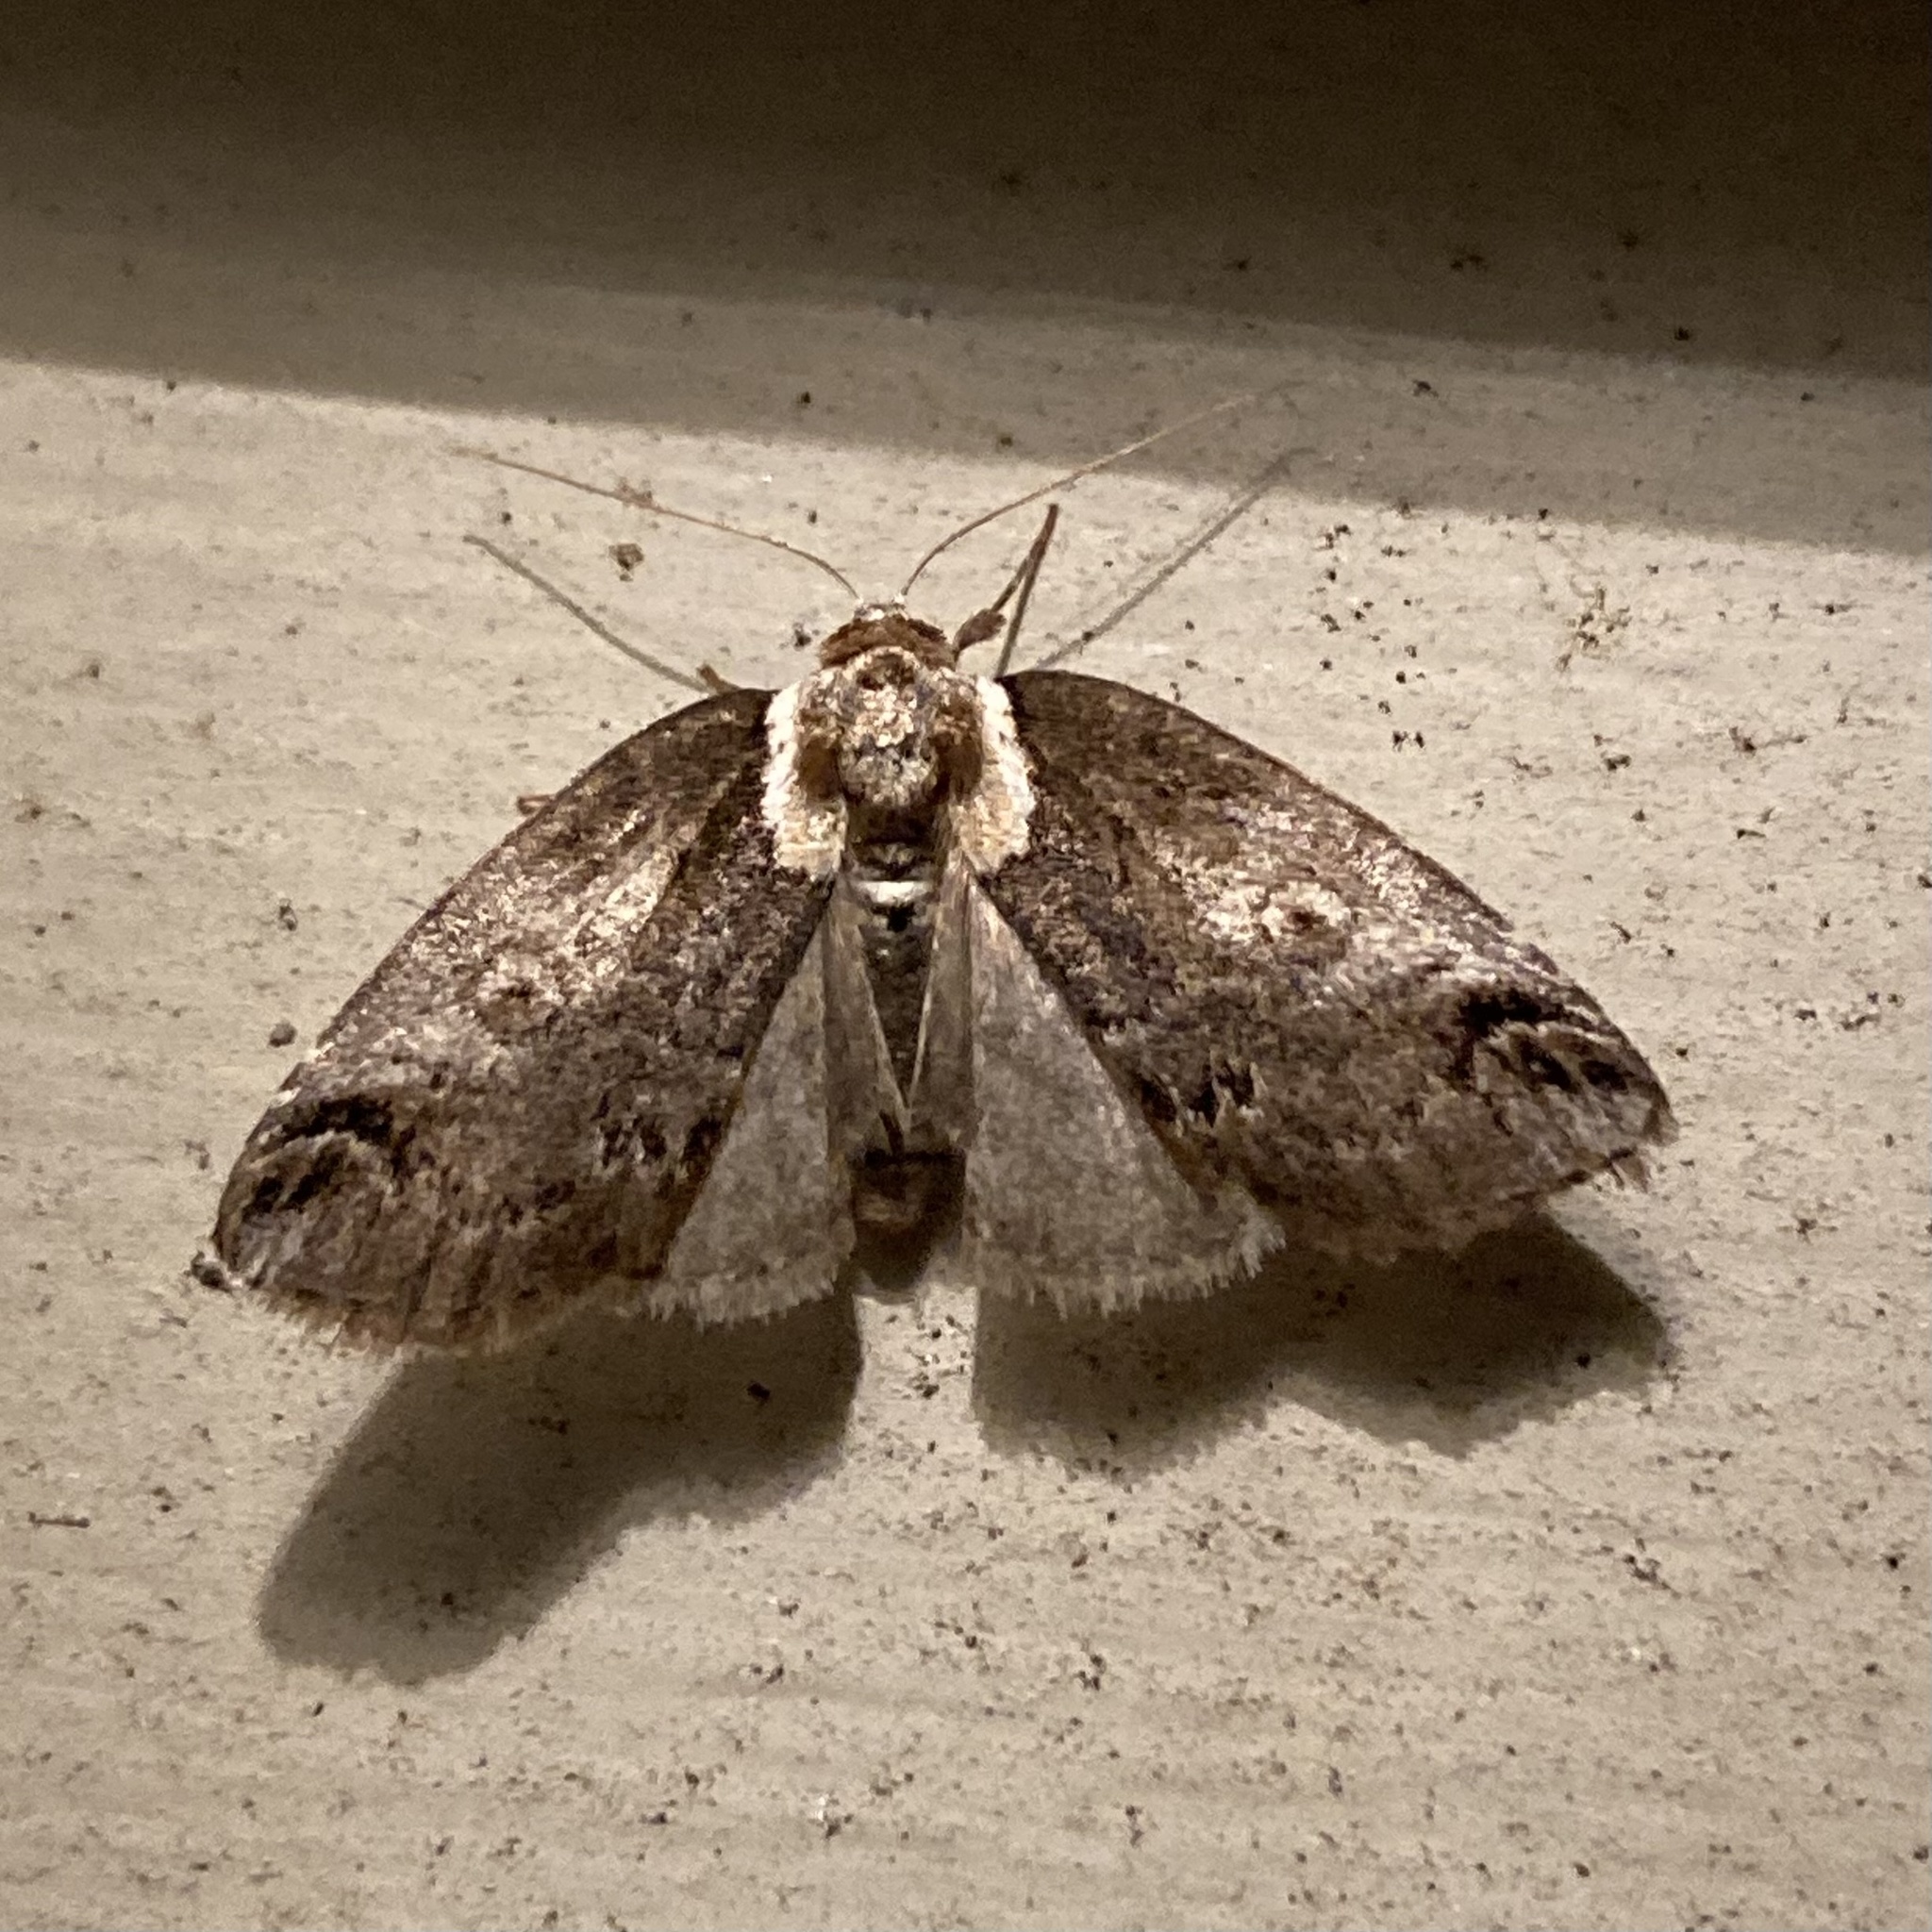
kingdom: Animalia
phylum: Arthropoda
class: Insecta
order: Lepidoptera
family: Nolidae
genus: Baileya
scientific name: Baileya ophthalmica
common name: Eyed baileya moth
